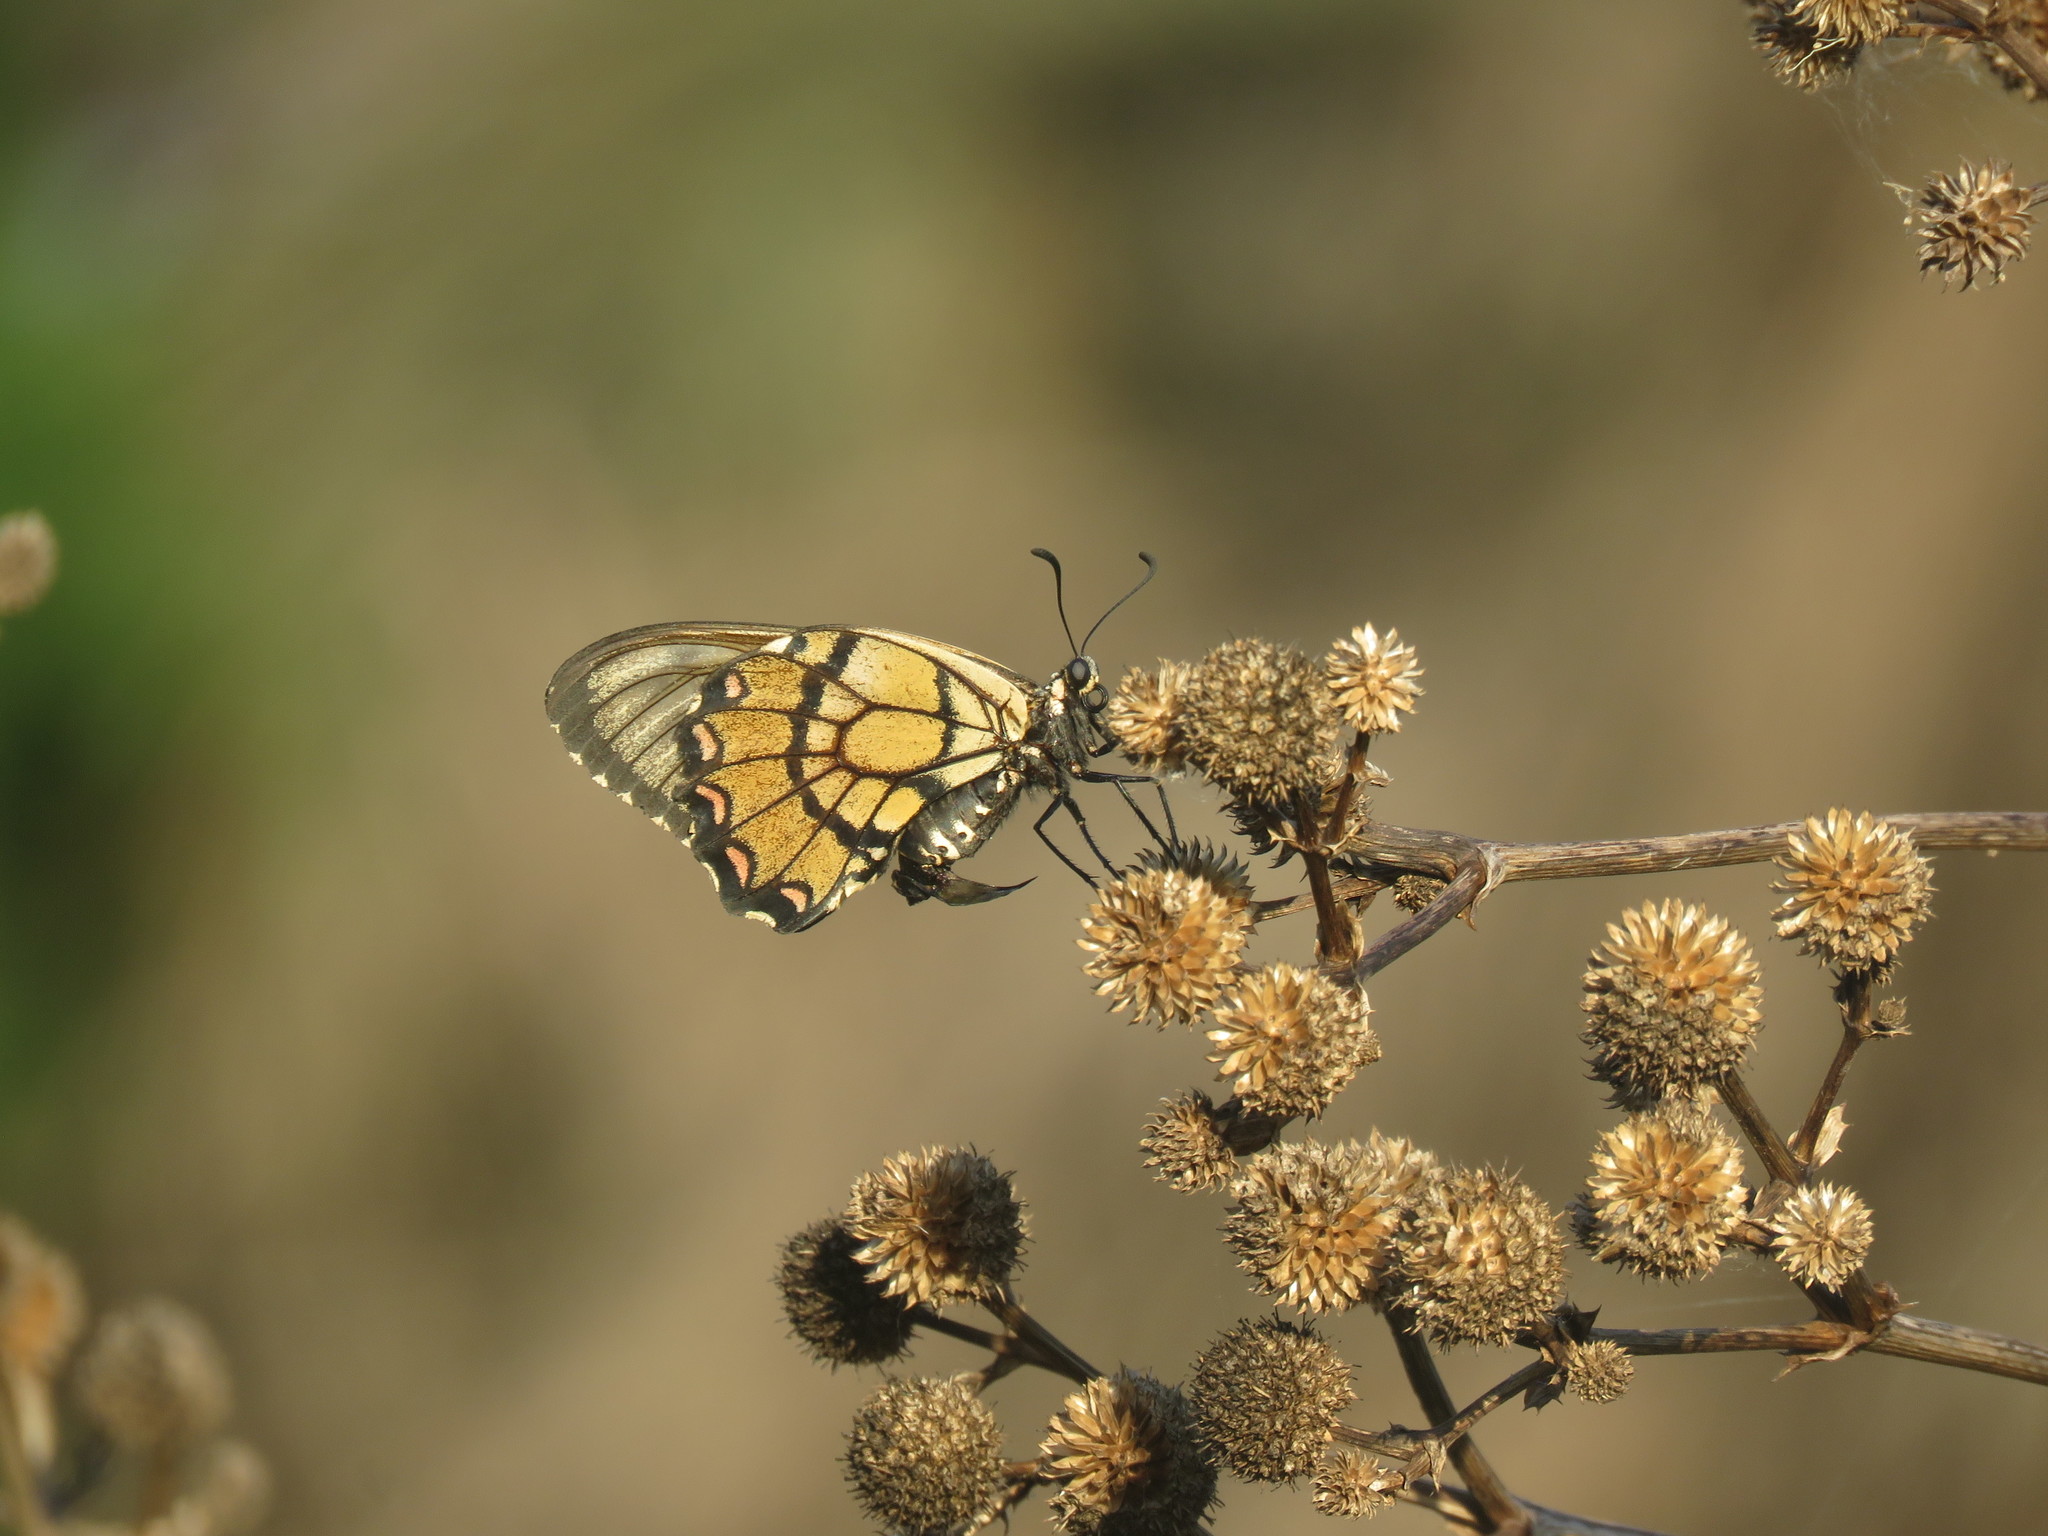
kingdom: Animalia
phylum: Arthropoda
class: Insecta
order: Lepidoptera
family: Papilionidae
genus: Euryades
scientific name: Euryades corethrus
